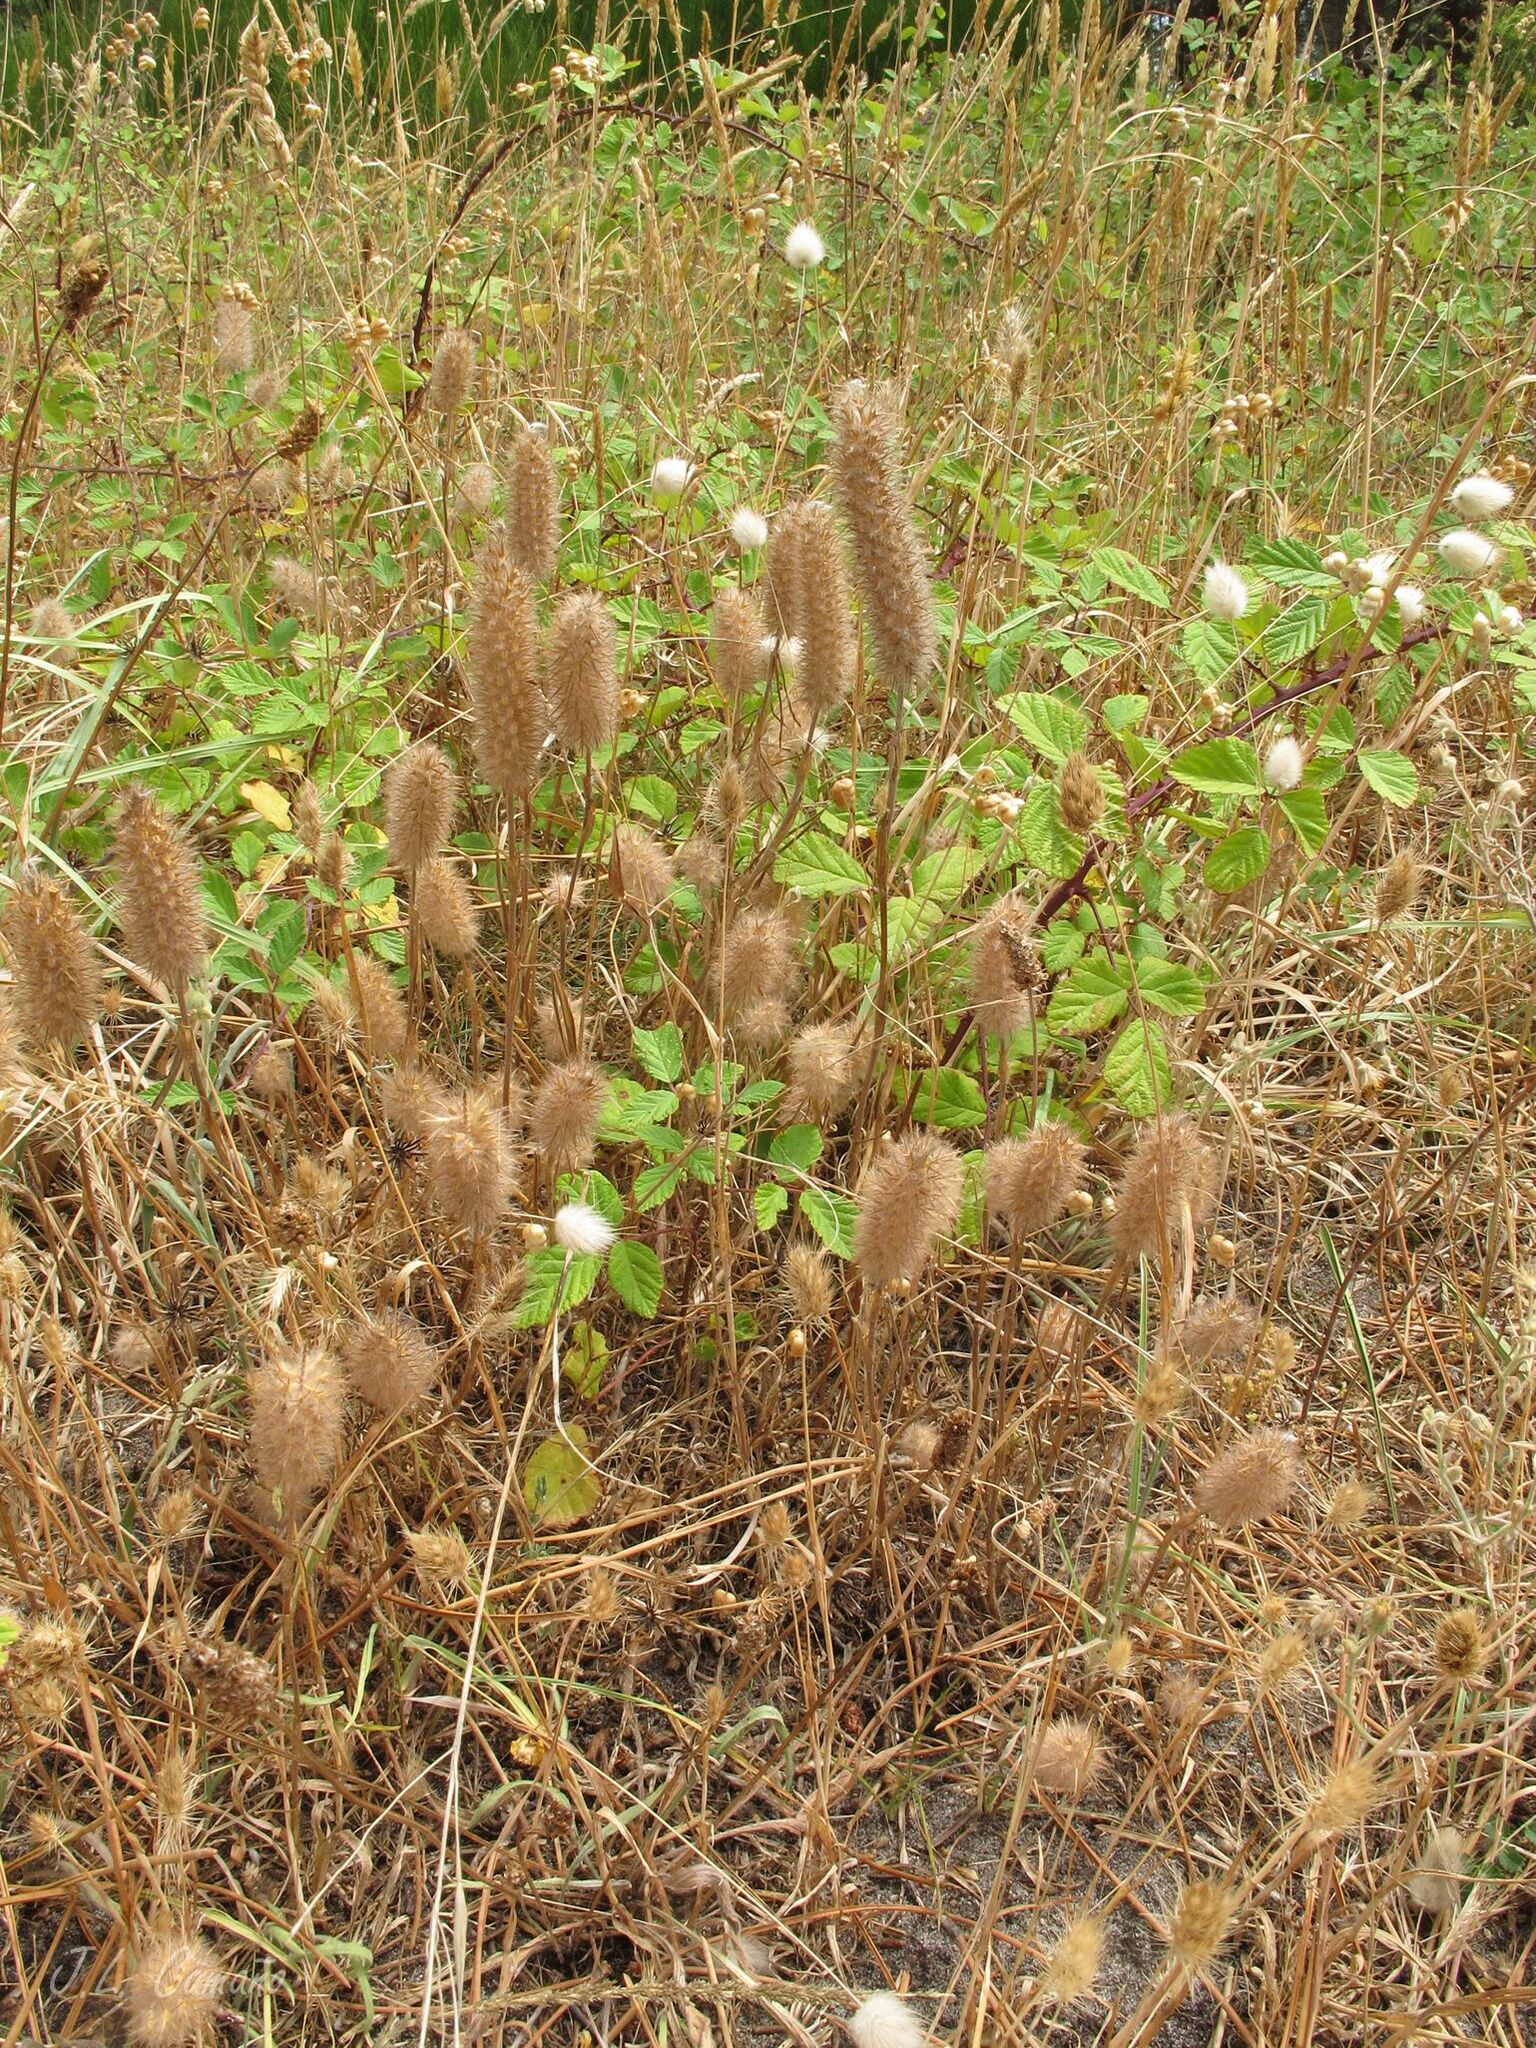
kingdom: Plantae
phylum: Tracheophyta
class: Magnoliopsida
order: Fabales
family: Fabaceae
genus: Trifolium
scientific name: Trifolium angustifolium
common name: Narrow clover
